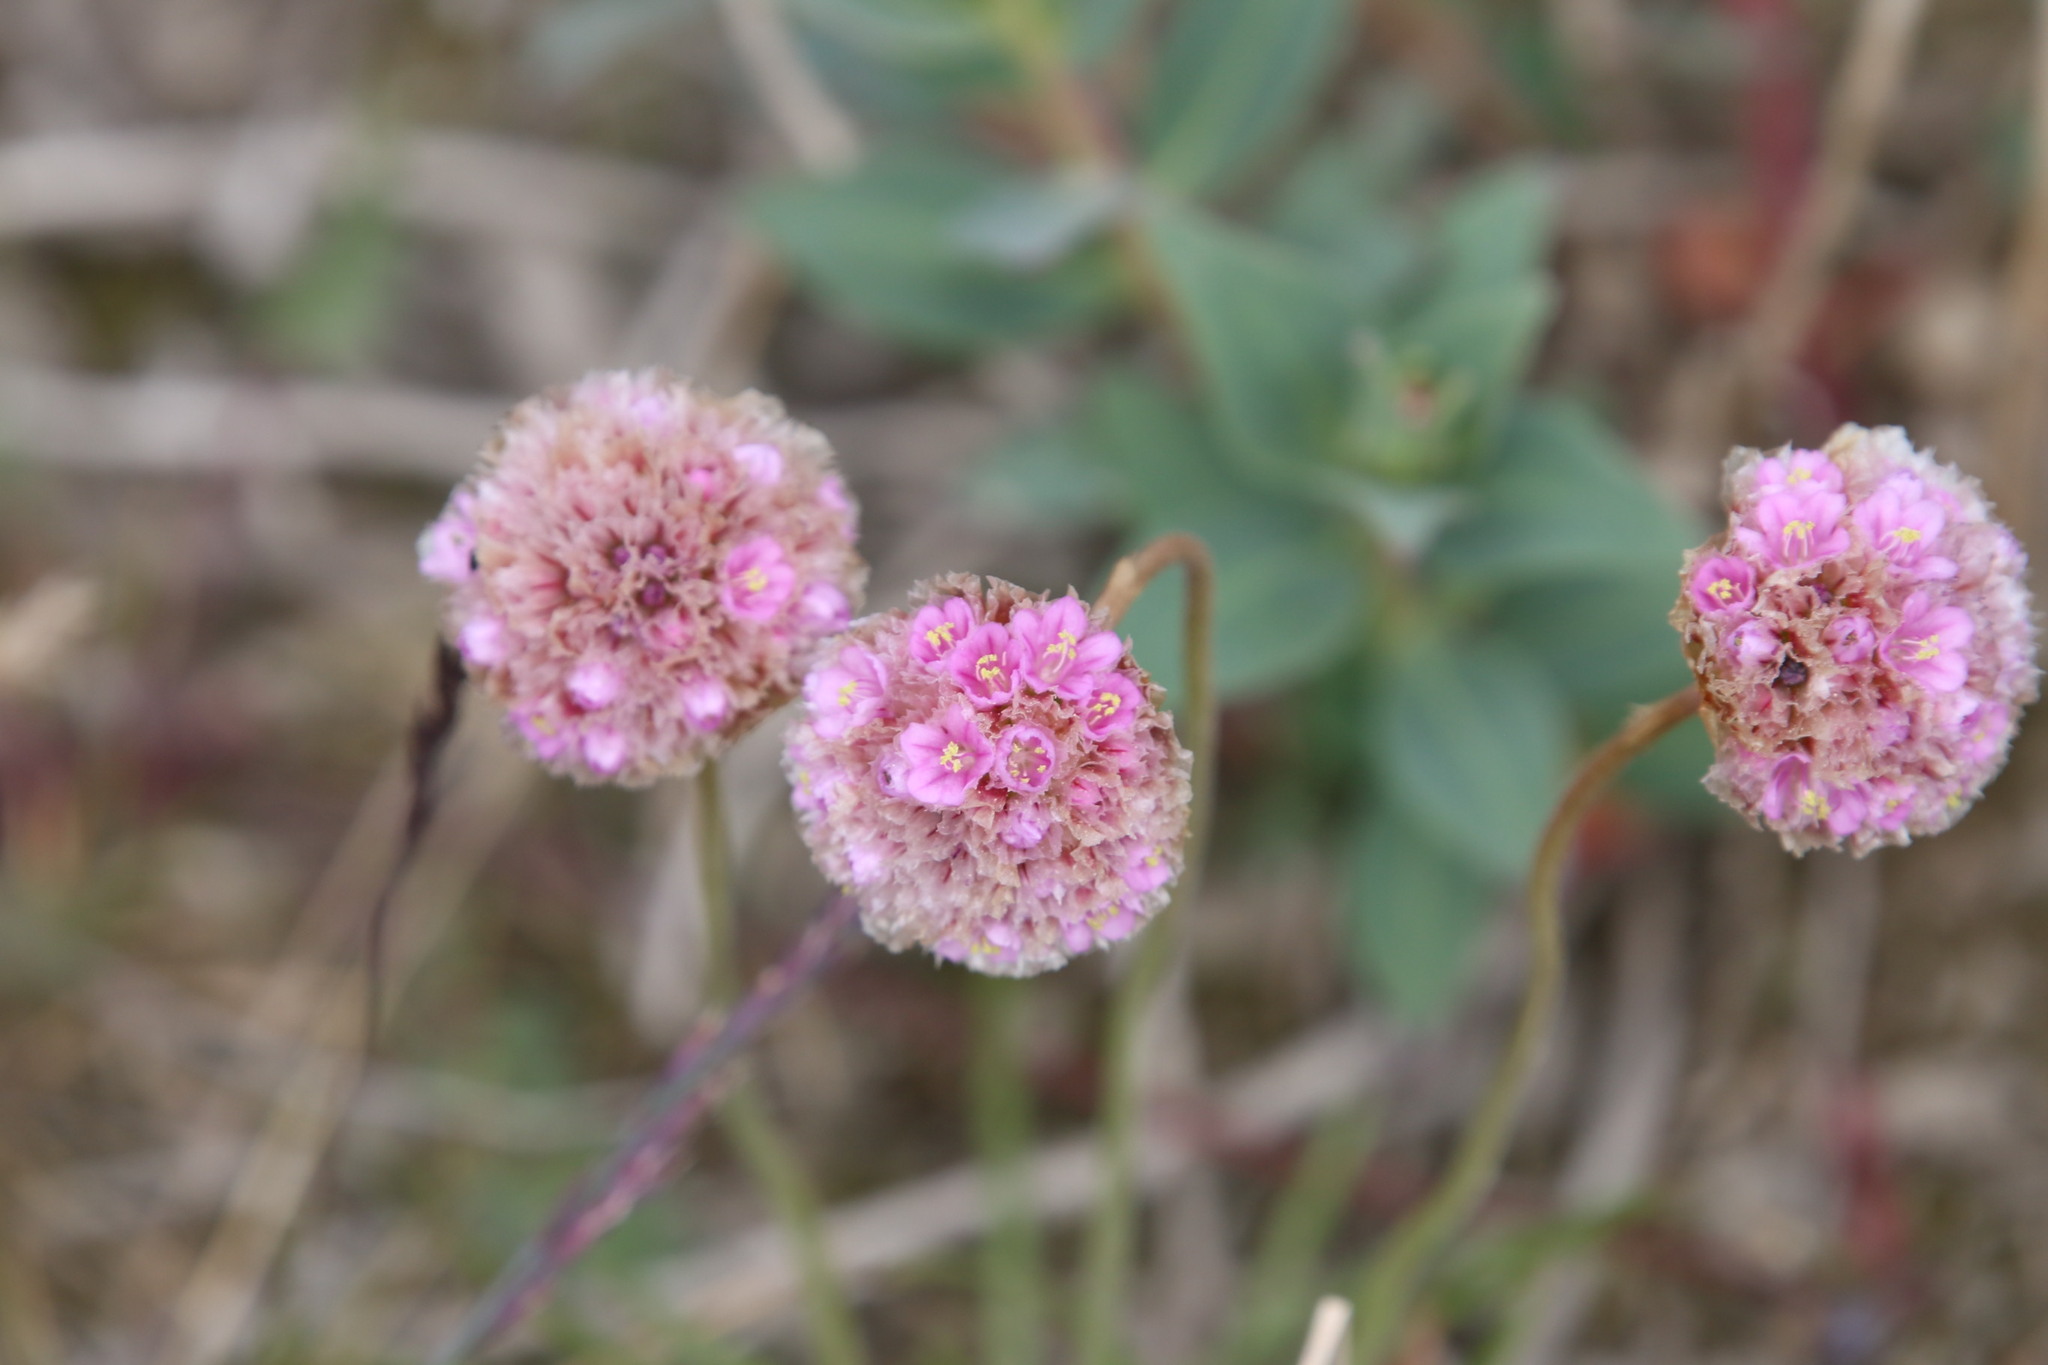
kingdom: Plantae
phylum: Tracheophyta
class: Magnoliopsida
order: Caryophyllales
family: Plumbaginaceae
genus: Armeria
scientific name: Armeria maritima
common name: Thrift
